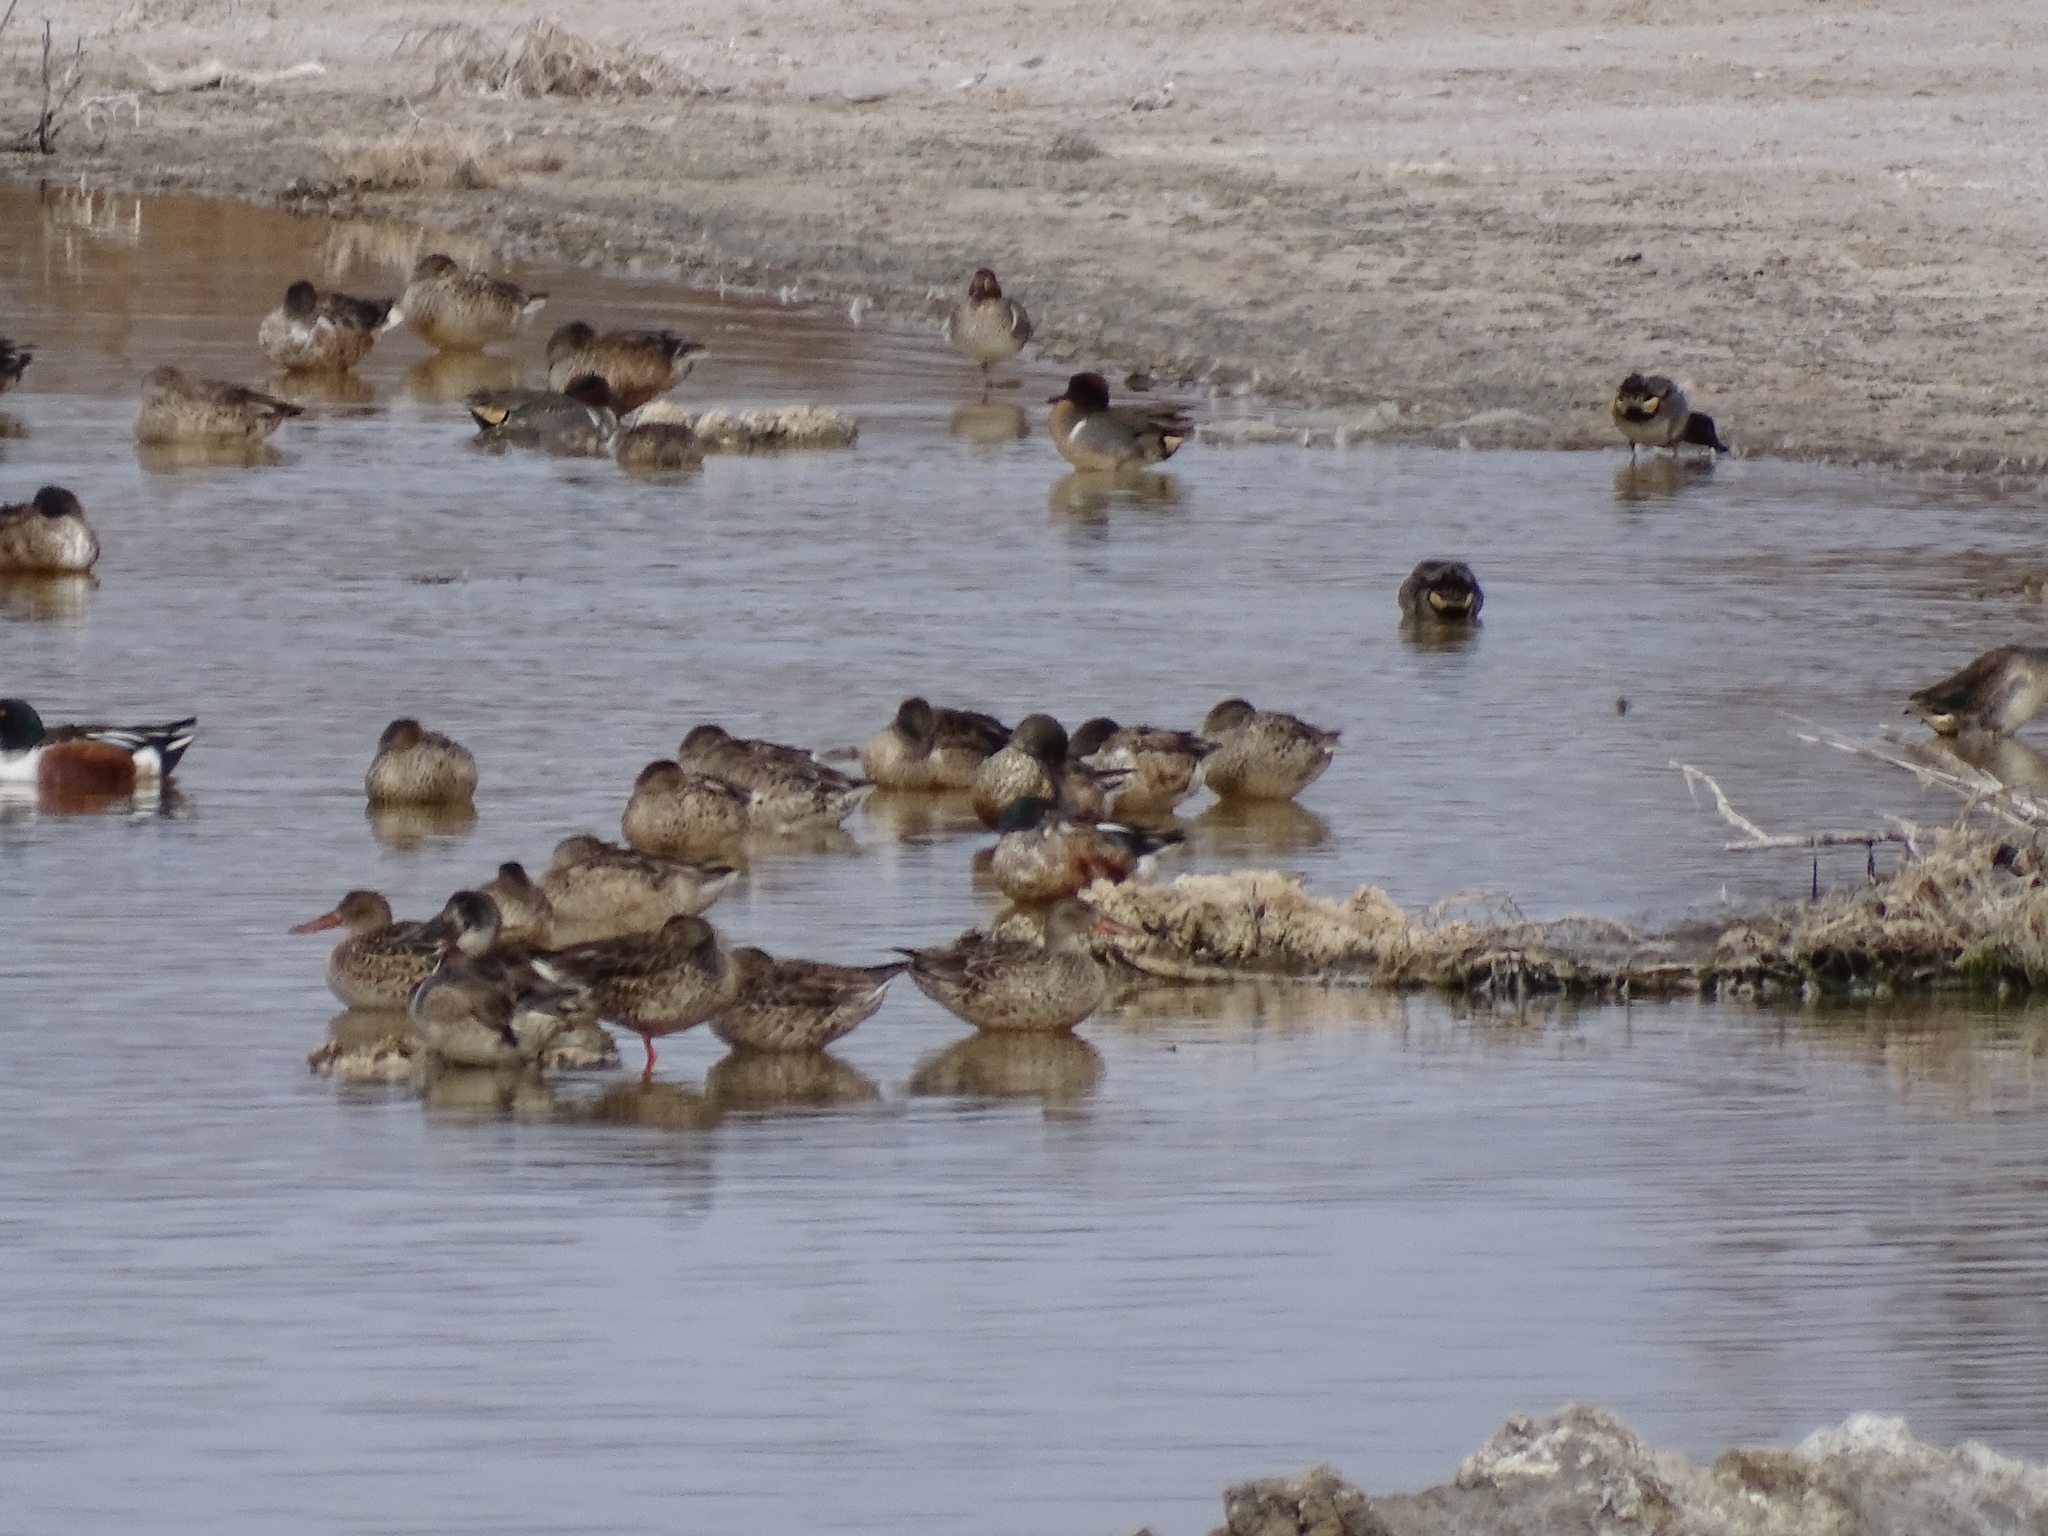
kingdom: Animalia
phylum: Chordata
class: Aves
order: Anseriformes
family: Anatidae
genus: Spatula
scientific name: Spatula clypeata
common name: Northern shoveler
